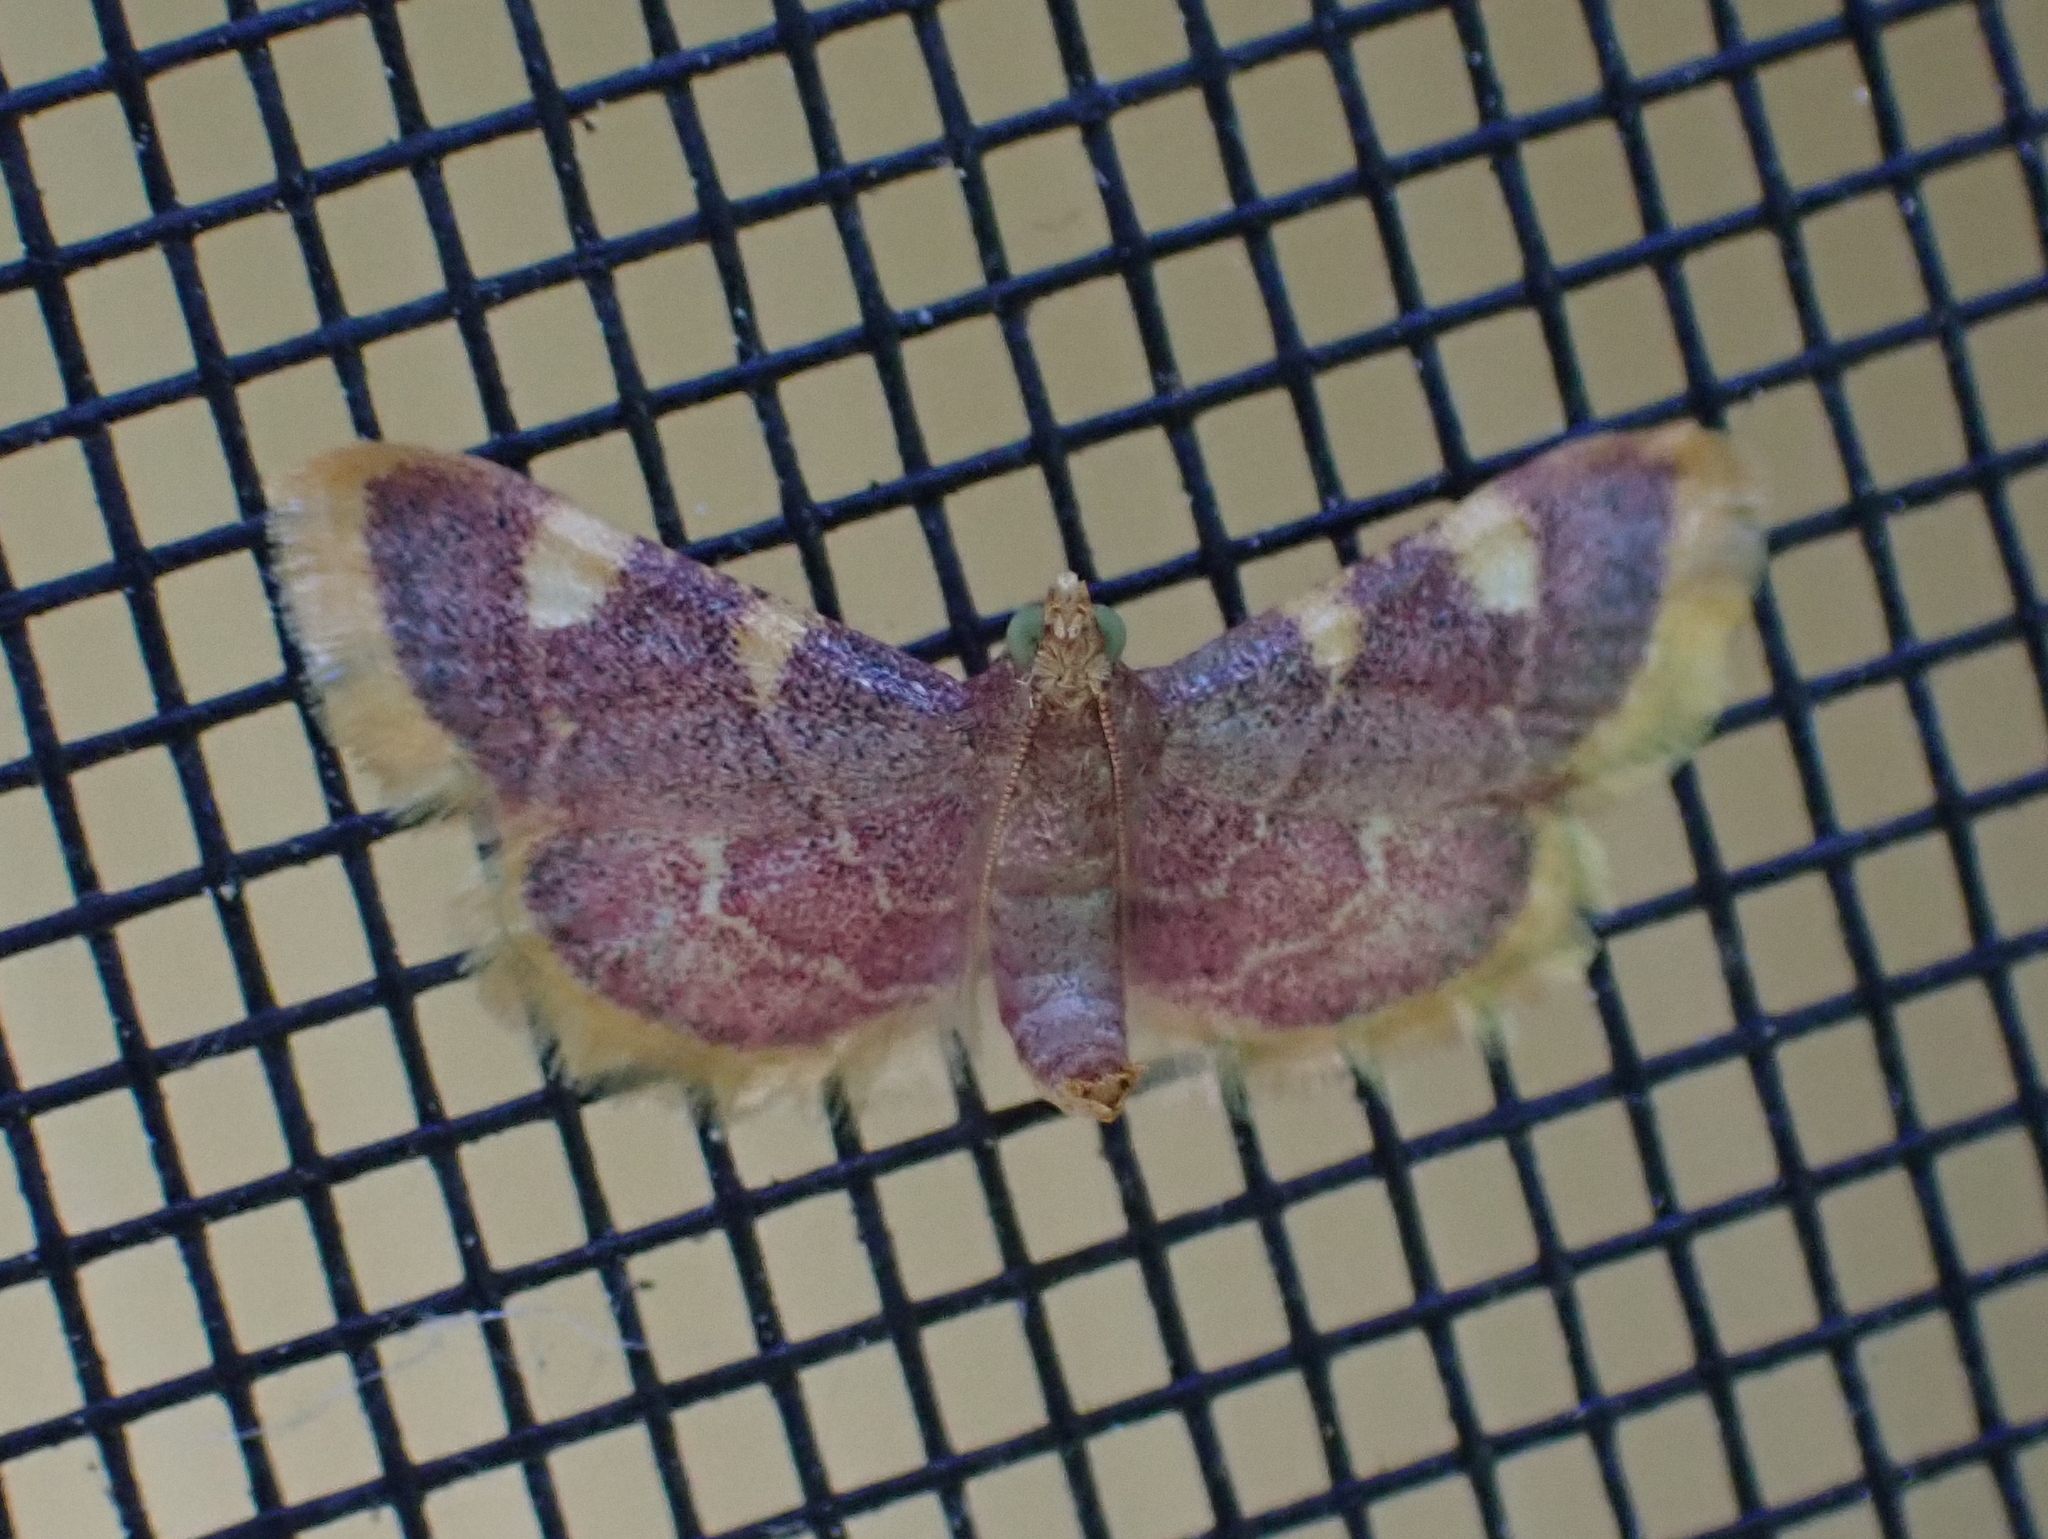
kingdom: Animalia
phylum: Arthropoda
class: Insecta
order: Lepidoptera
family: Pyralidae
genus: Hypsopygia
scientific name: Hypsopygia costalis
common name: Gold triangle
